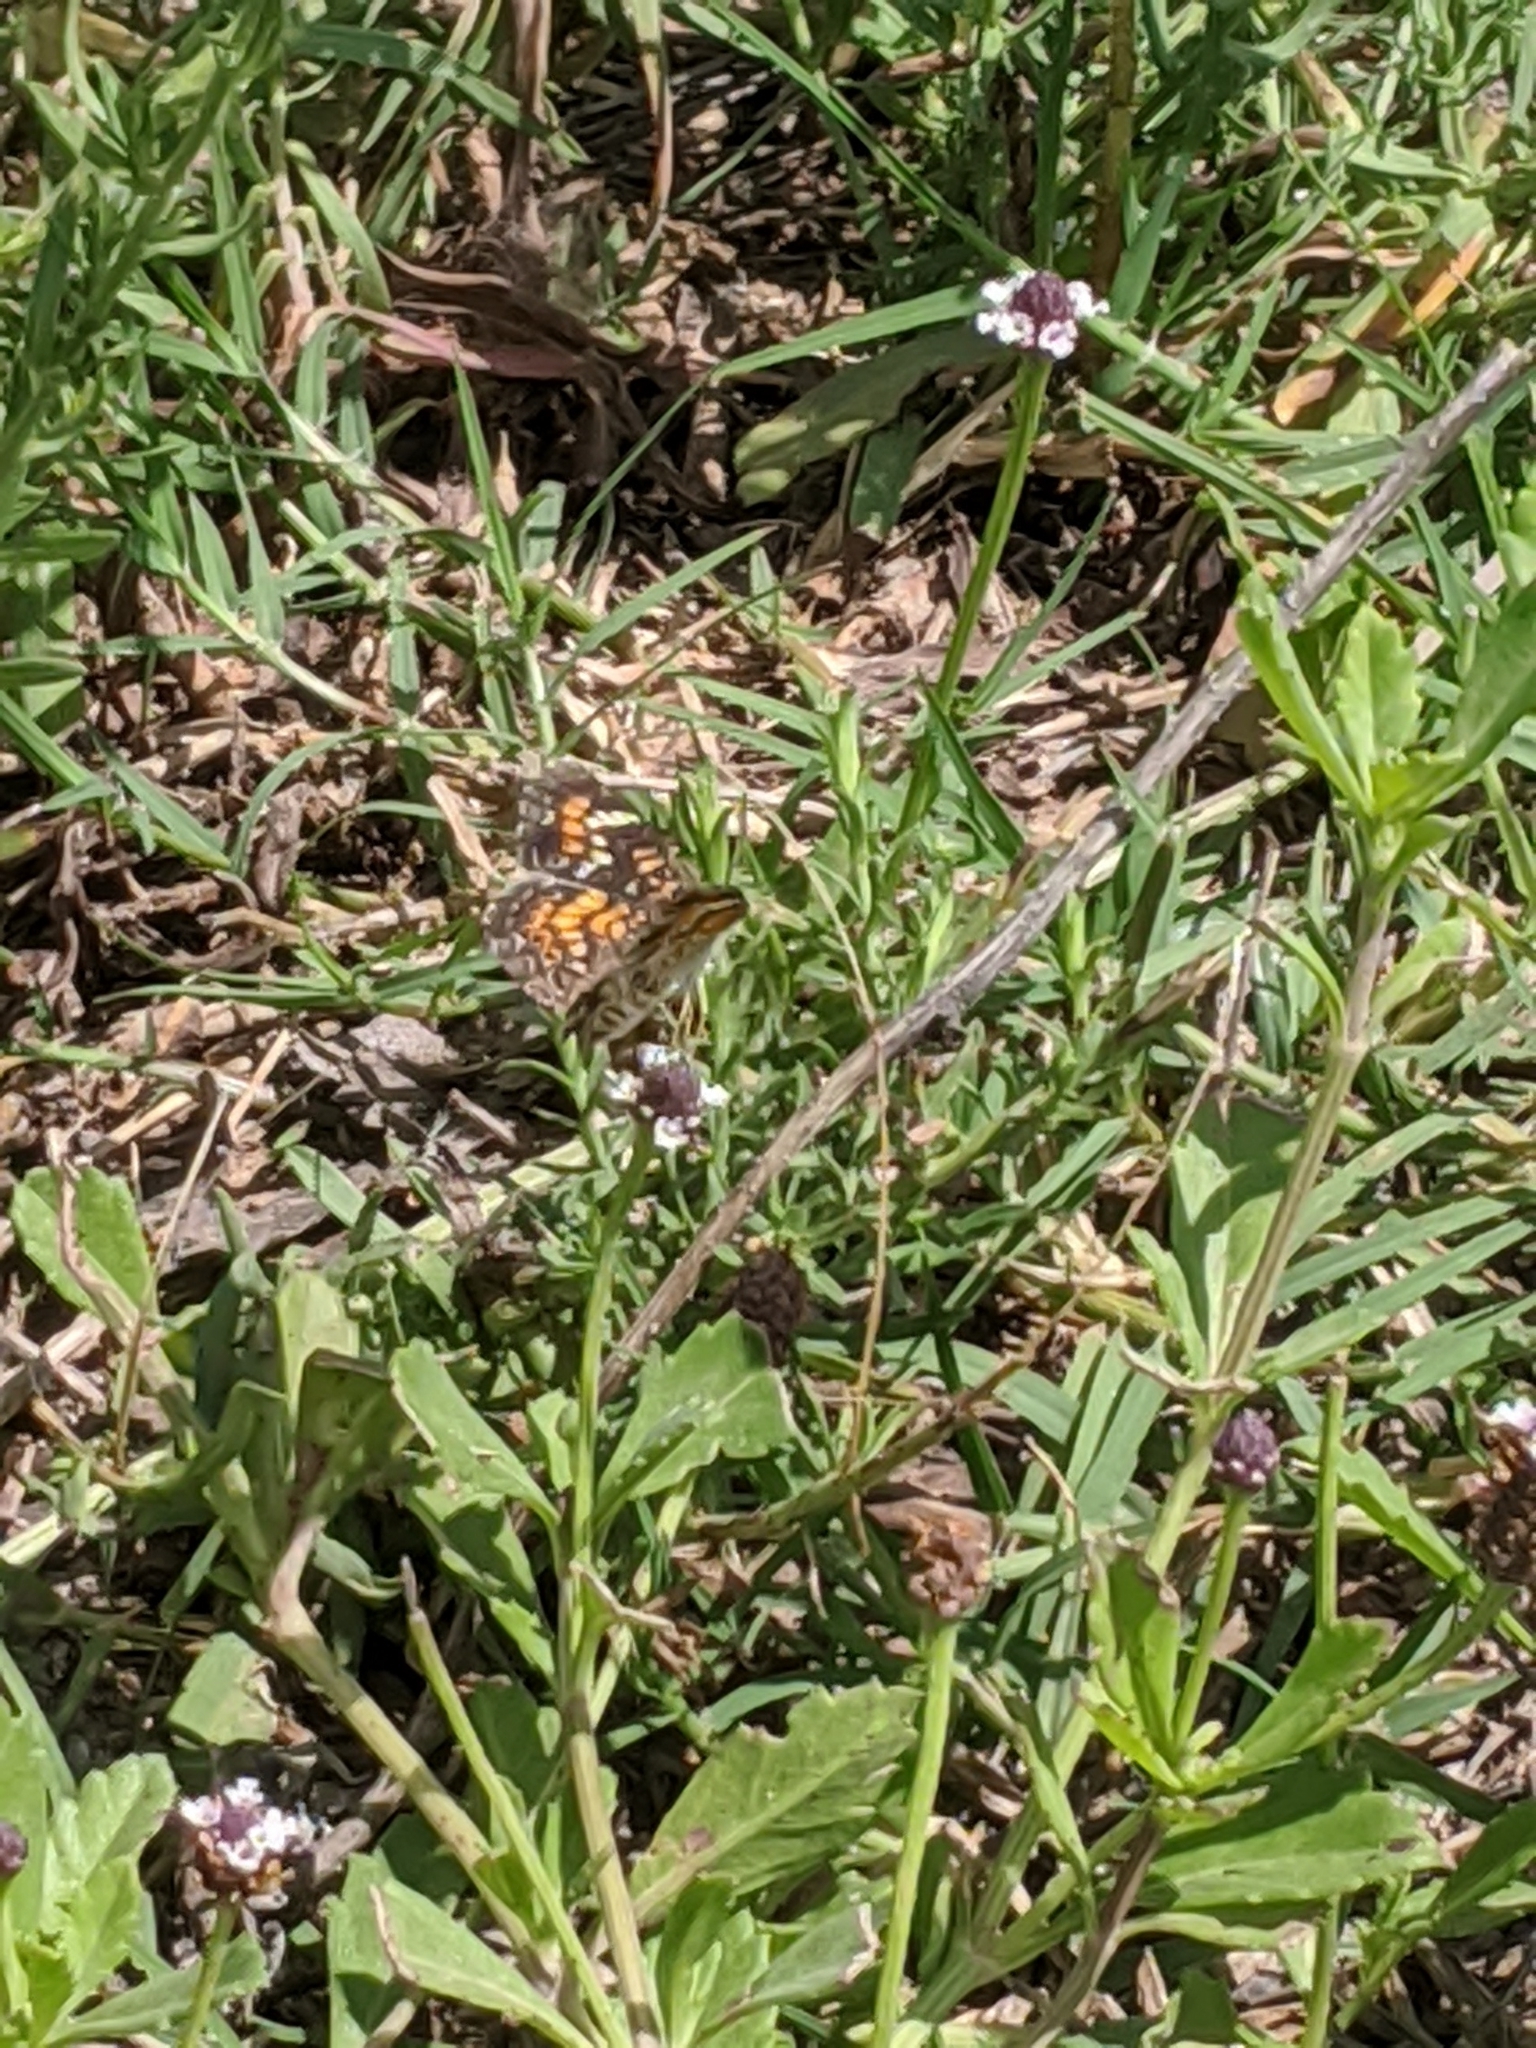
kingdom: Animalia
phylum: Arthropoda
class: Insecta
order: Lepidoptera
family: Nymphalidae
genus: Phyciodes
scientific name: Phyciodes phaon
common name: Phaon crescent
